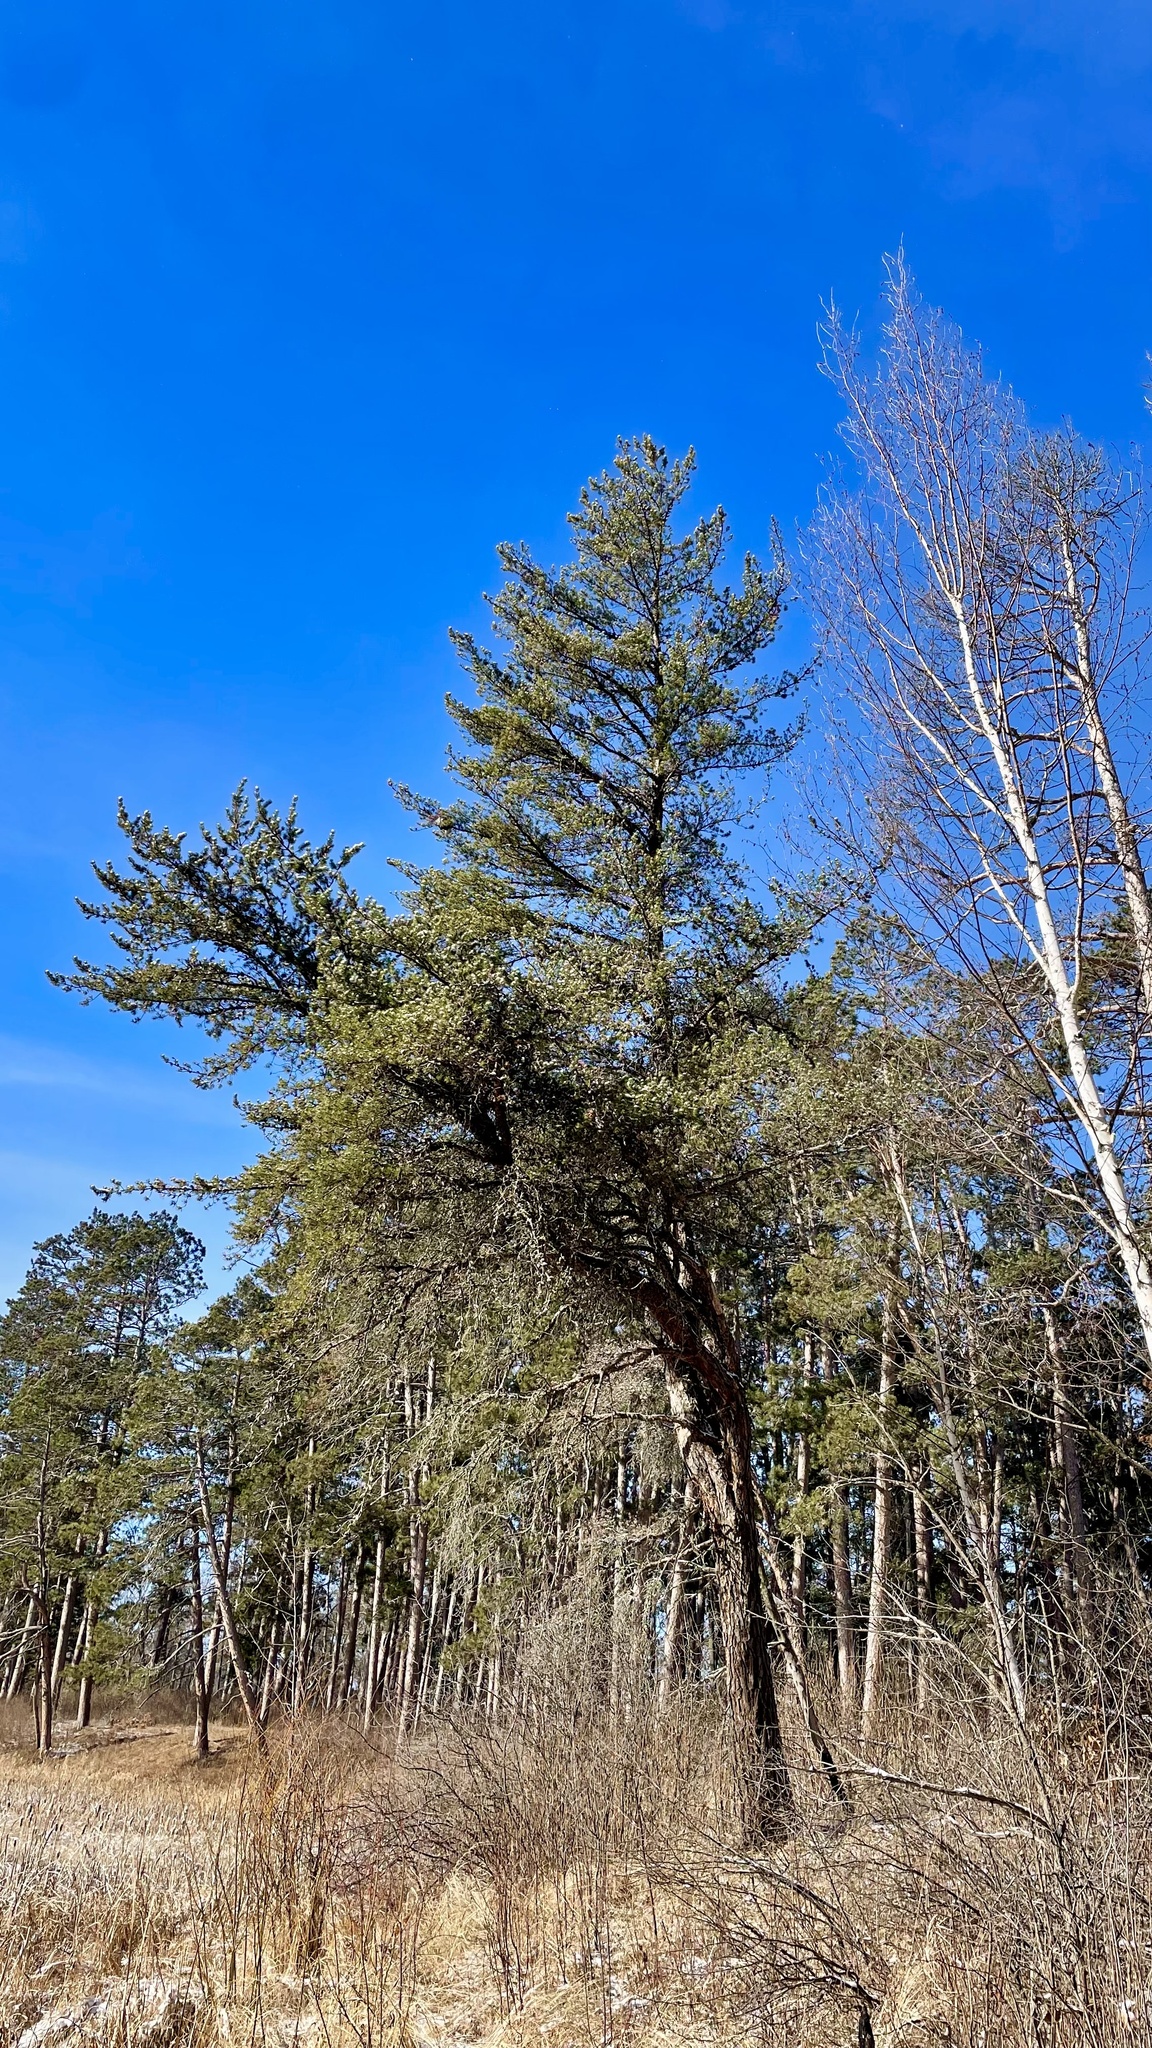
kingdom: Plantae
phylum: Tracheophyta
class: Pinopsida
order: Pinales
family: Pinaceae
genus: Pinus
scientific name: Pinus banksiana
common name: Jack pine
